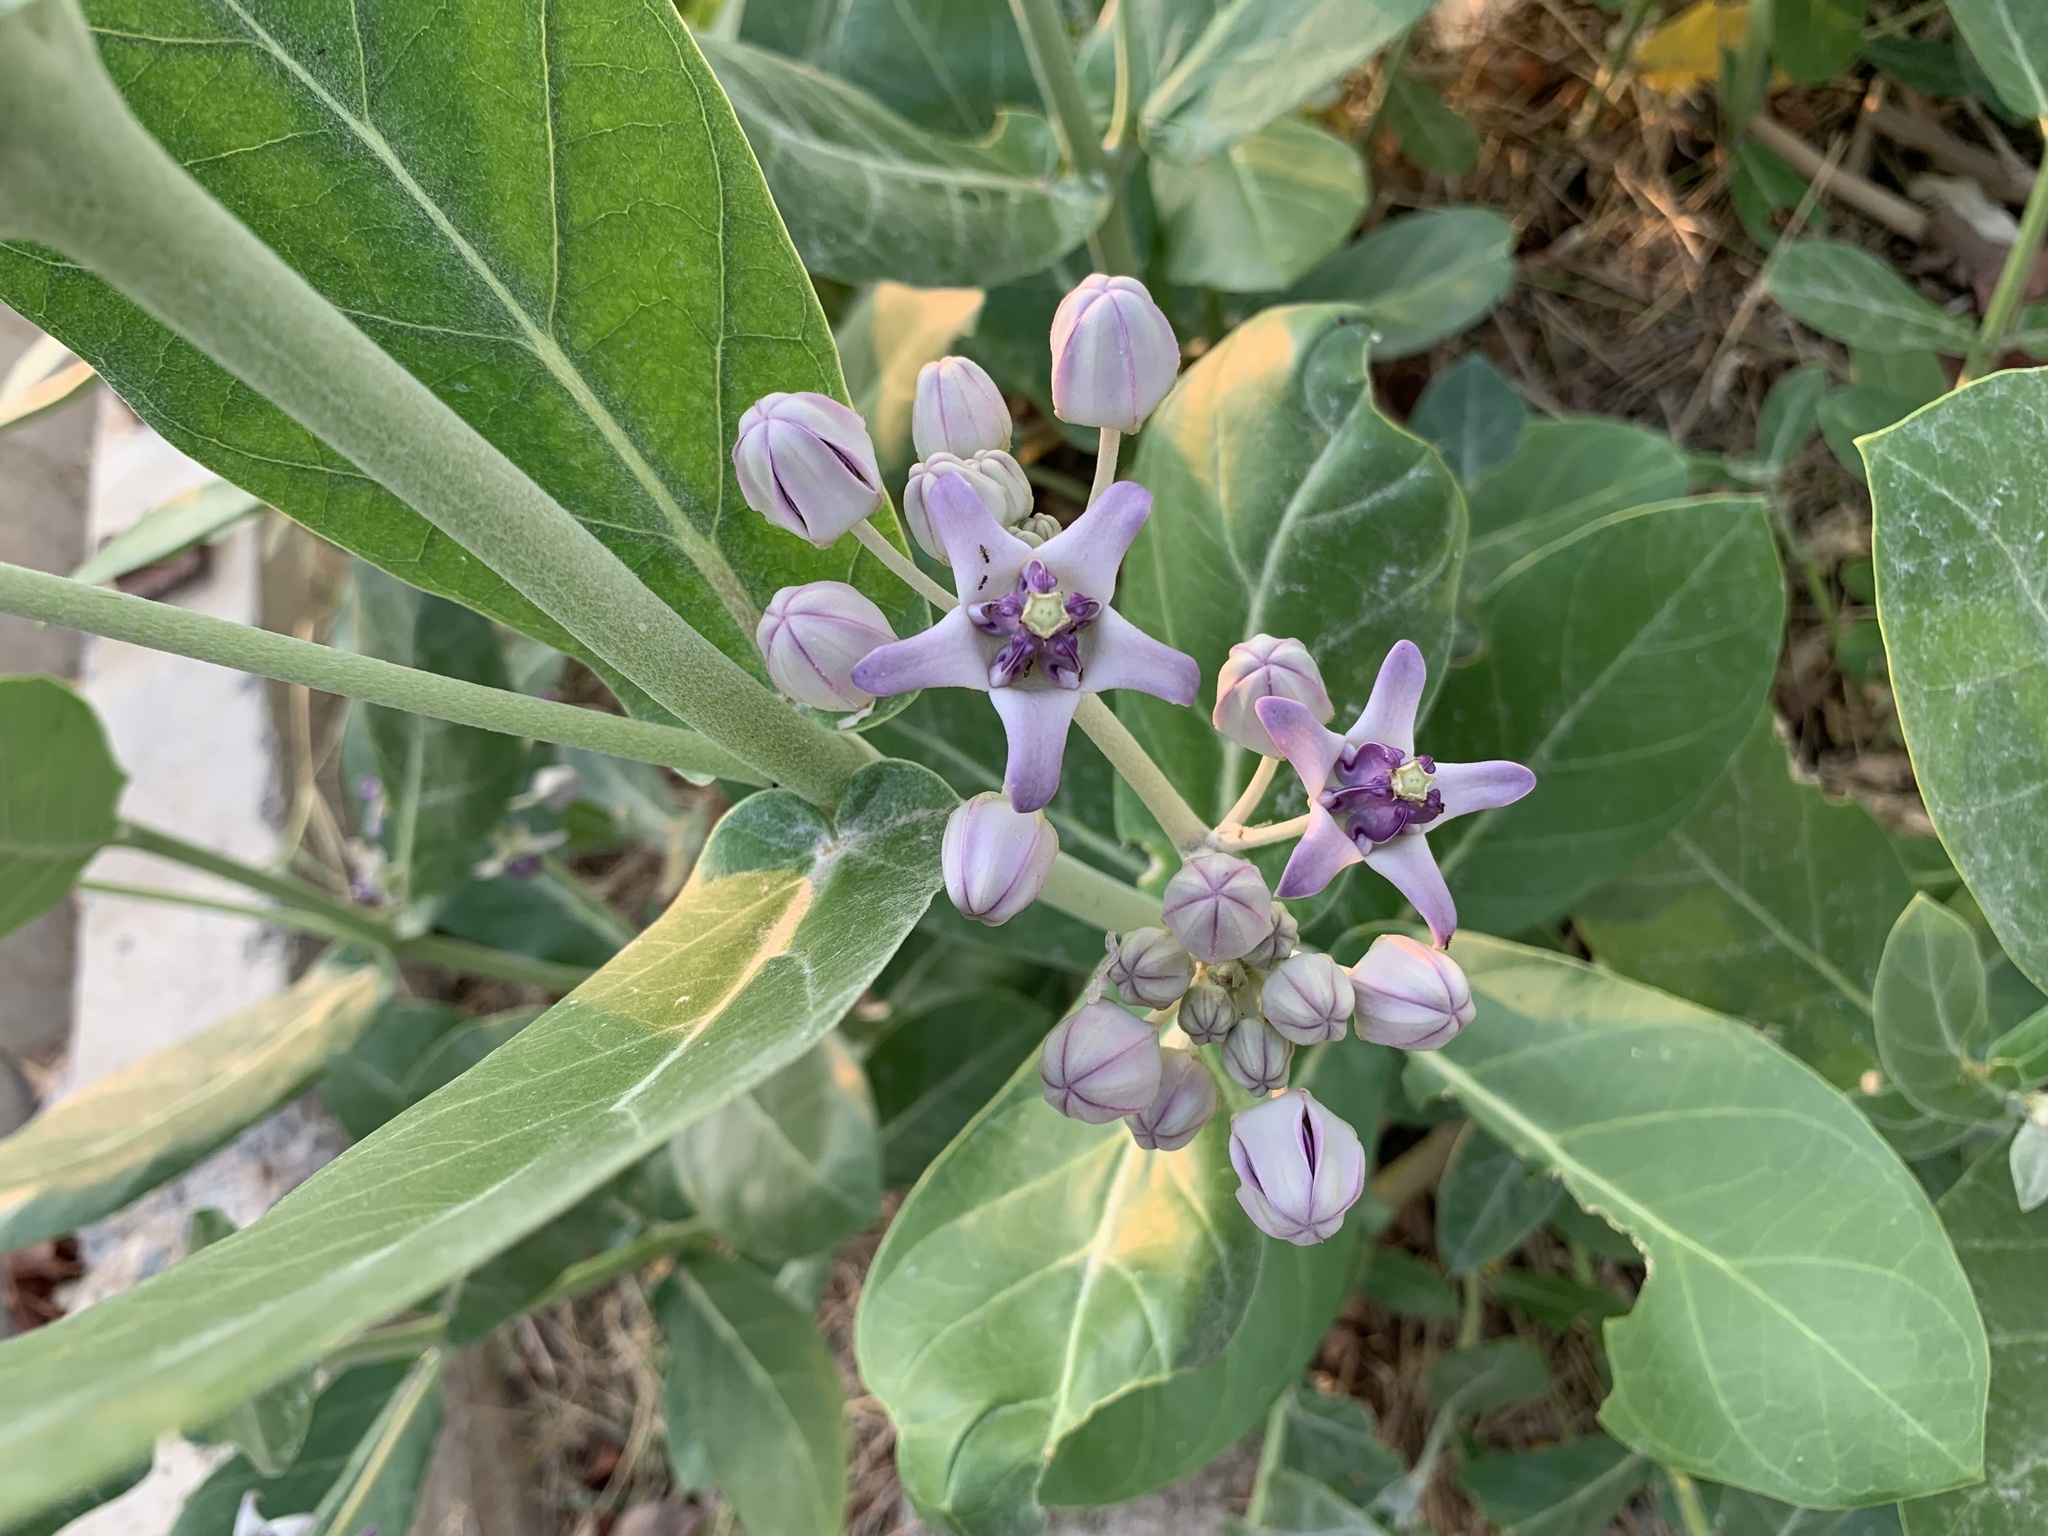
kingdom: Plantae
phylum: Tracheophyta
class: Magnoliopsida
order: Gentianales
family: Apocynaceae
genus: Calotropis
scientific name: Calotropis gigantea
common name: Crown flower
